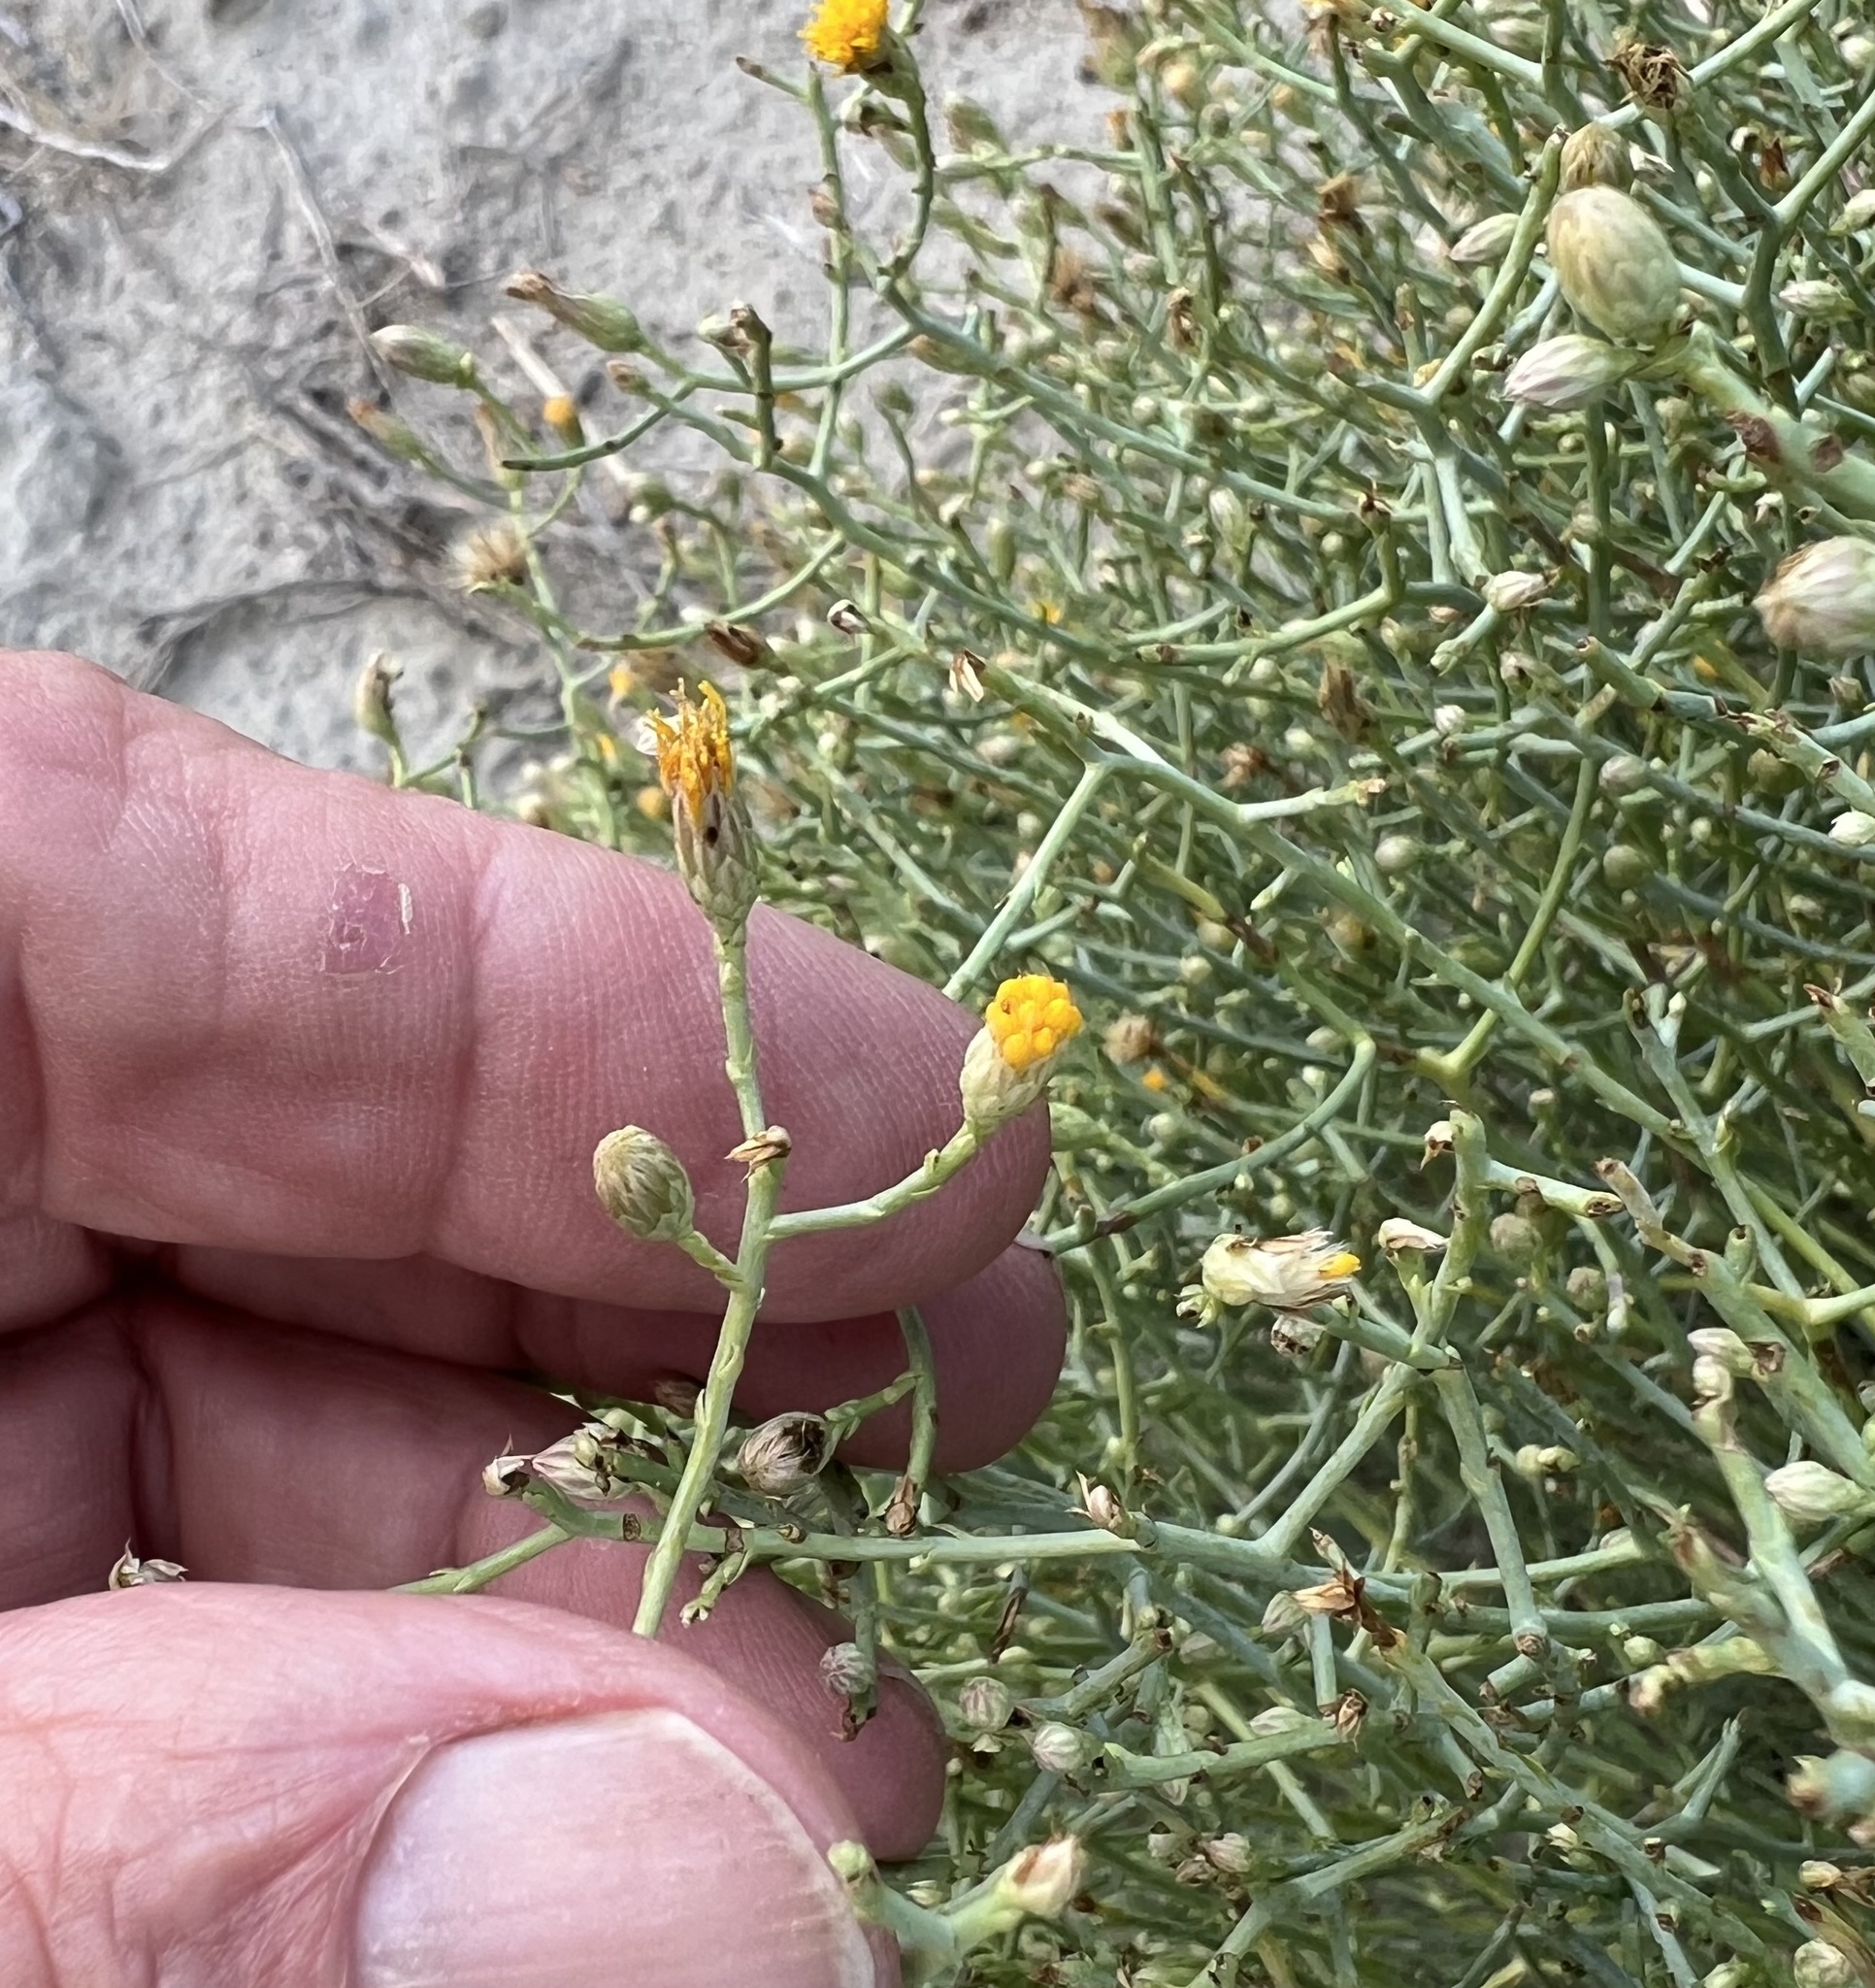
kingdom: Plantae
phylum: Tracheophyta
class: Magnoliopsida
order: Asterales
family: Asteraceae
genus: Leucosyris
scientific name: Leucosyris carnosa
